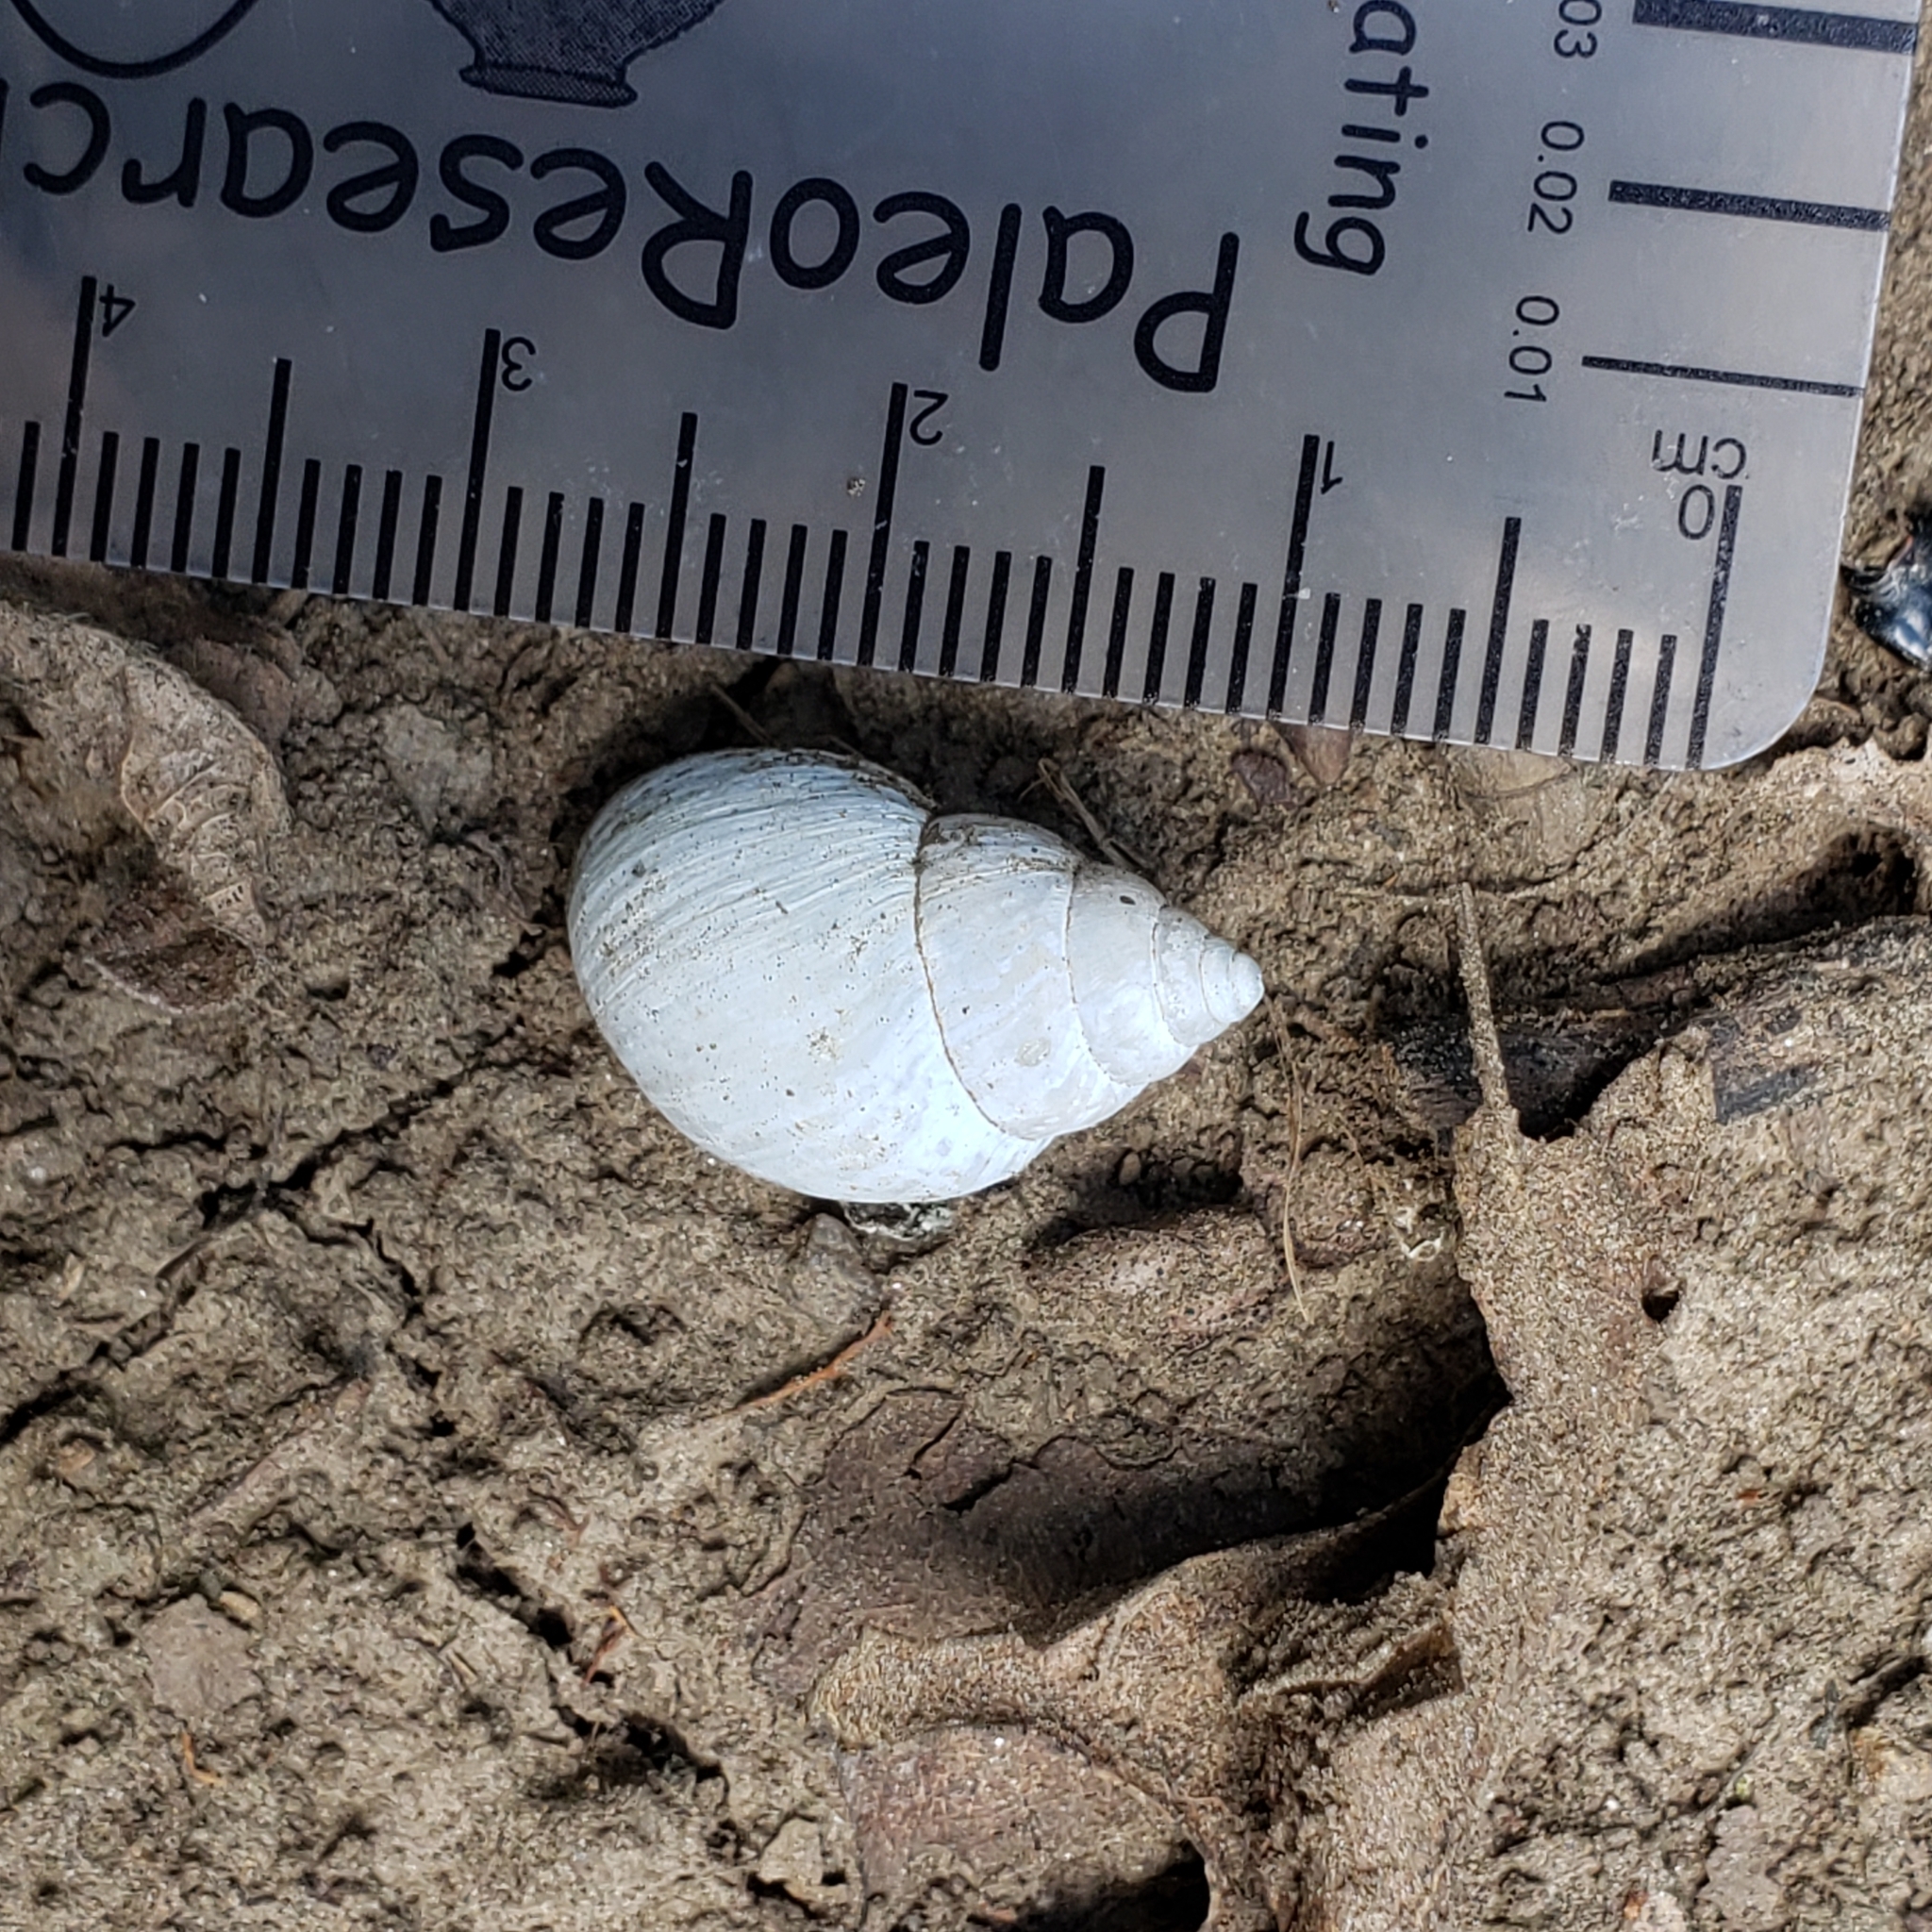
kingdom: Animalia
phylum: Mollusca
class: Gastropoda
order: Stylommatophora
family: Bulimulidae
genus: Rabdotus
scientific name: Rabdotus dealbatus
